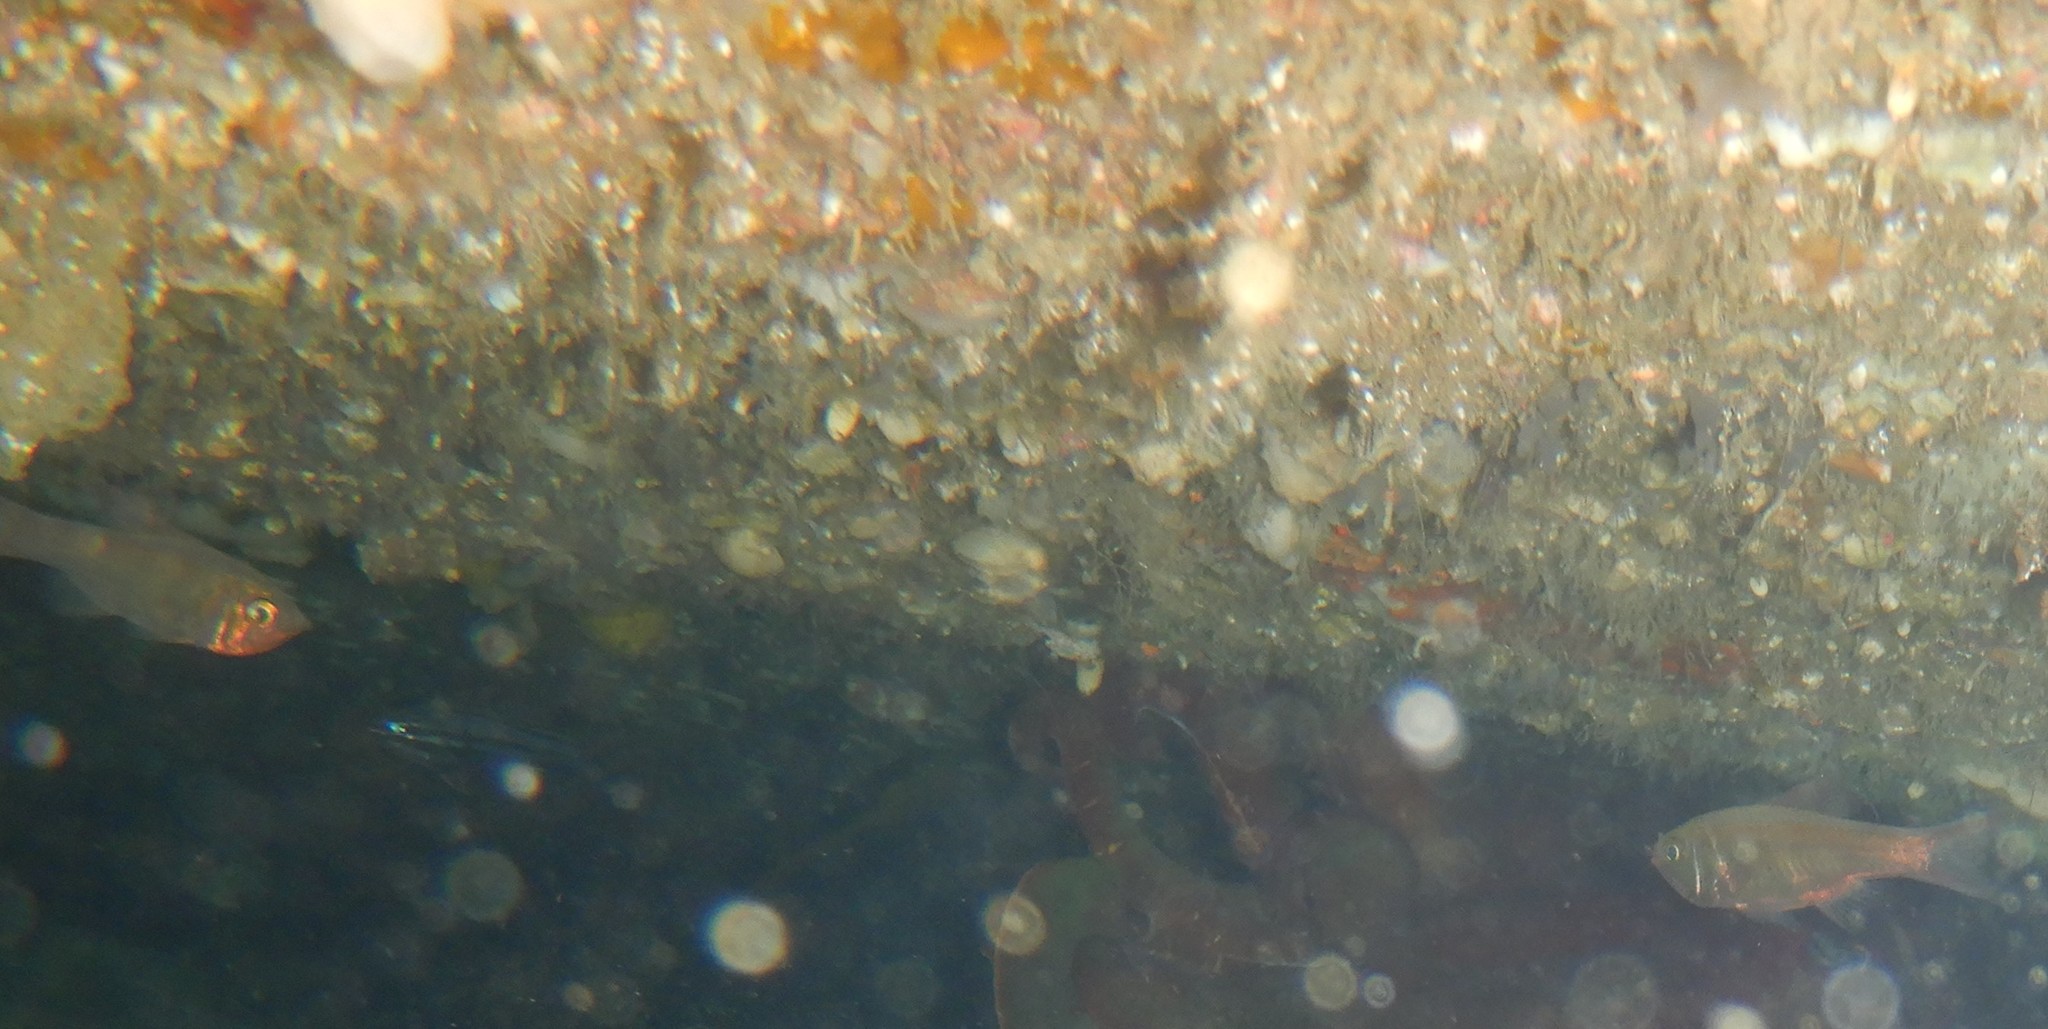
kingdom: Animalia
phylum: Chordata
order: Beryciformes
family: Trachichthyidae
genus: Optivus
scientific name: Optivus agastos
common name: Violet roughy
